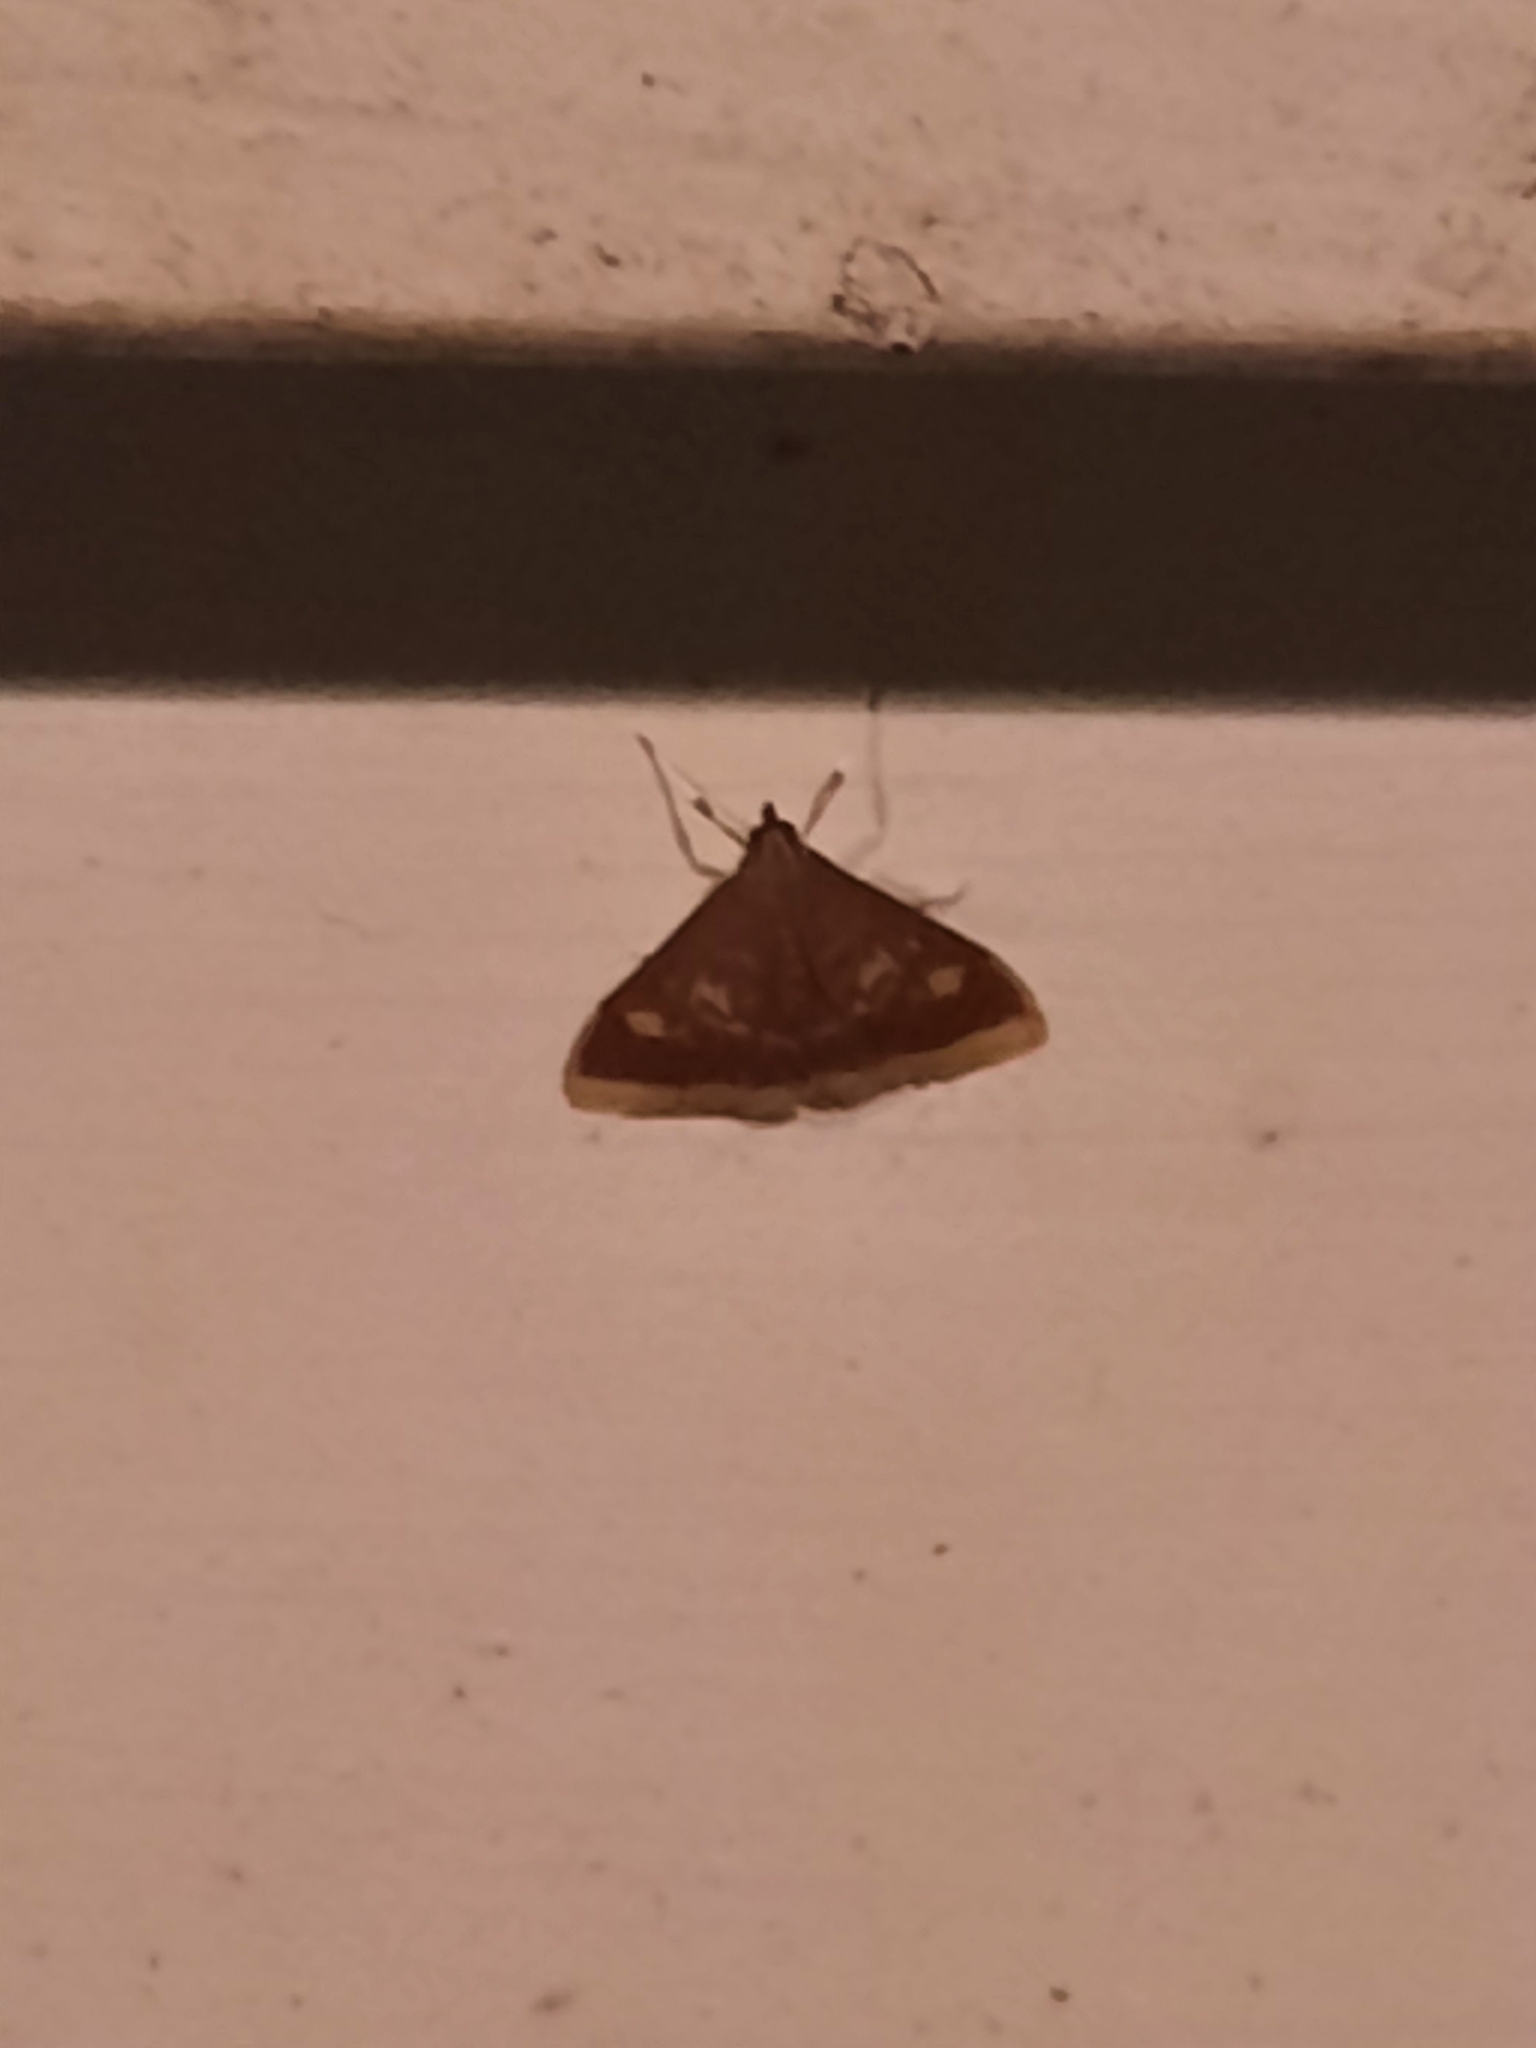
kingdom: Animalia
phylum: Arthropoda
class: Insecta
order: Lepidoptera
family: Crambidae
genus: Pyrausta
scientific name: Pyrausta acrionalis
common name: Mint-loving pyrausta moth
